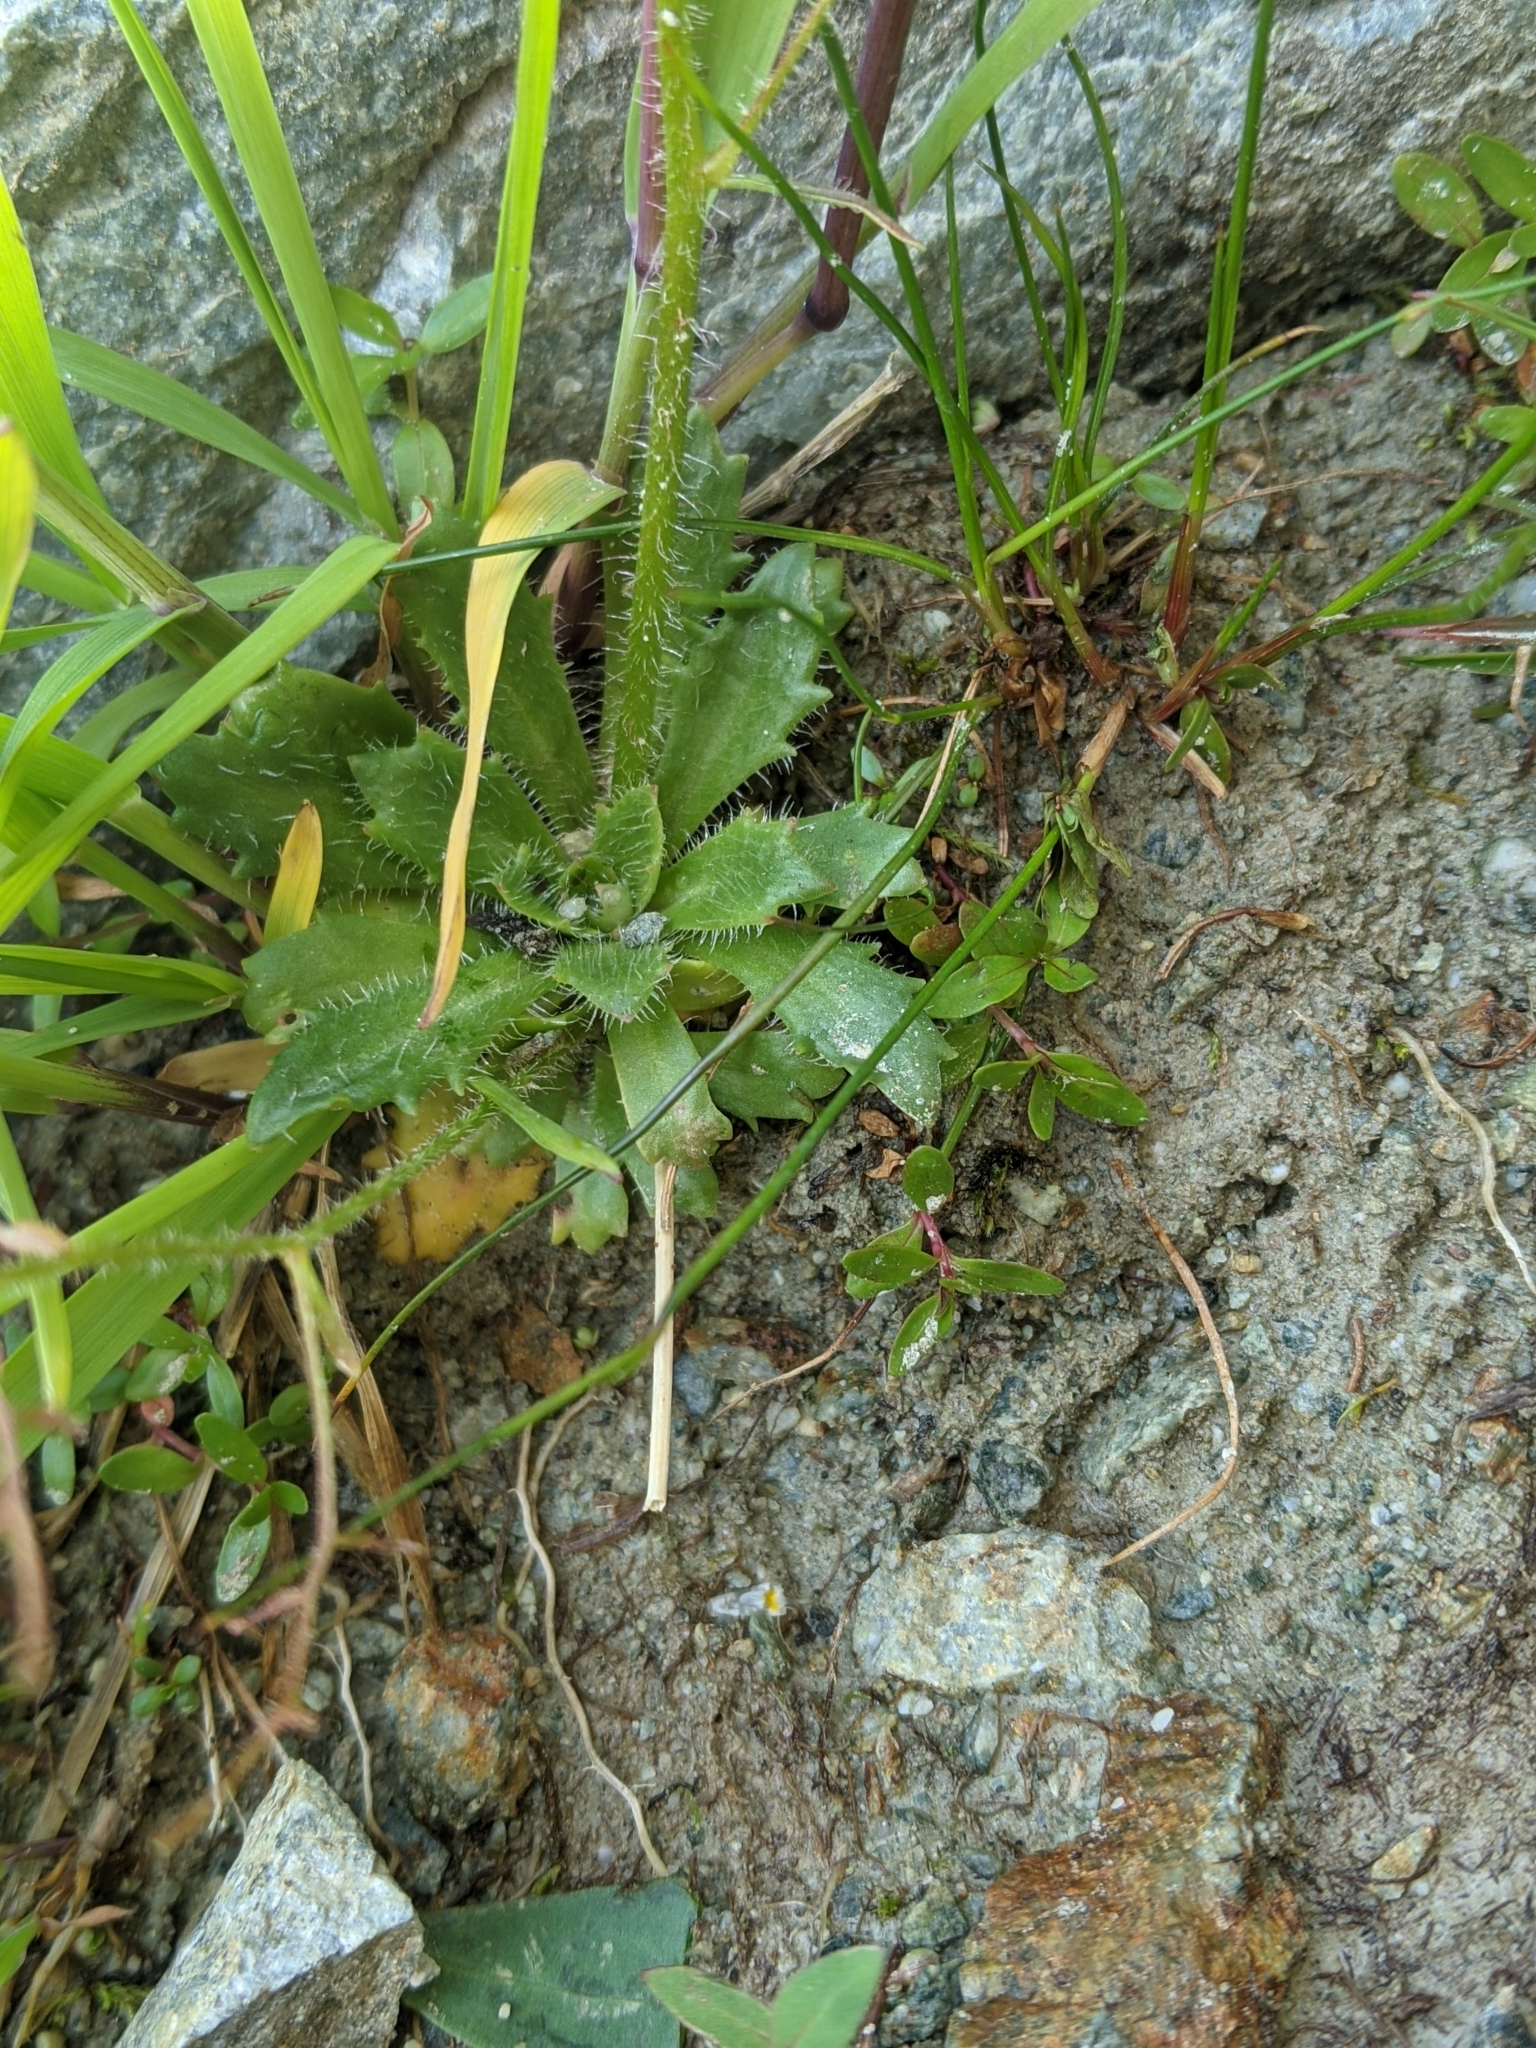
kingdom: Plantae
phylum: Tracheophyta
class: Magnoliopsida
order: Saxifragales
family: Saxifragaceae
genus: Micranthes
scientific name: Micranthes ferruginea
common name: Rusty saxifrage
